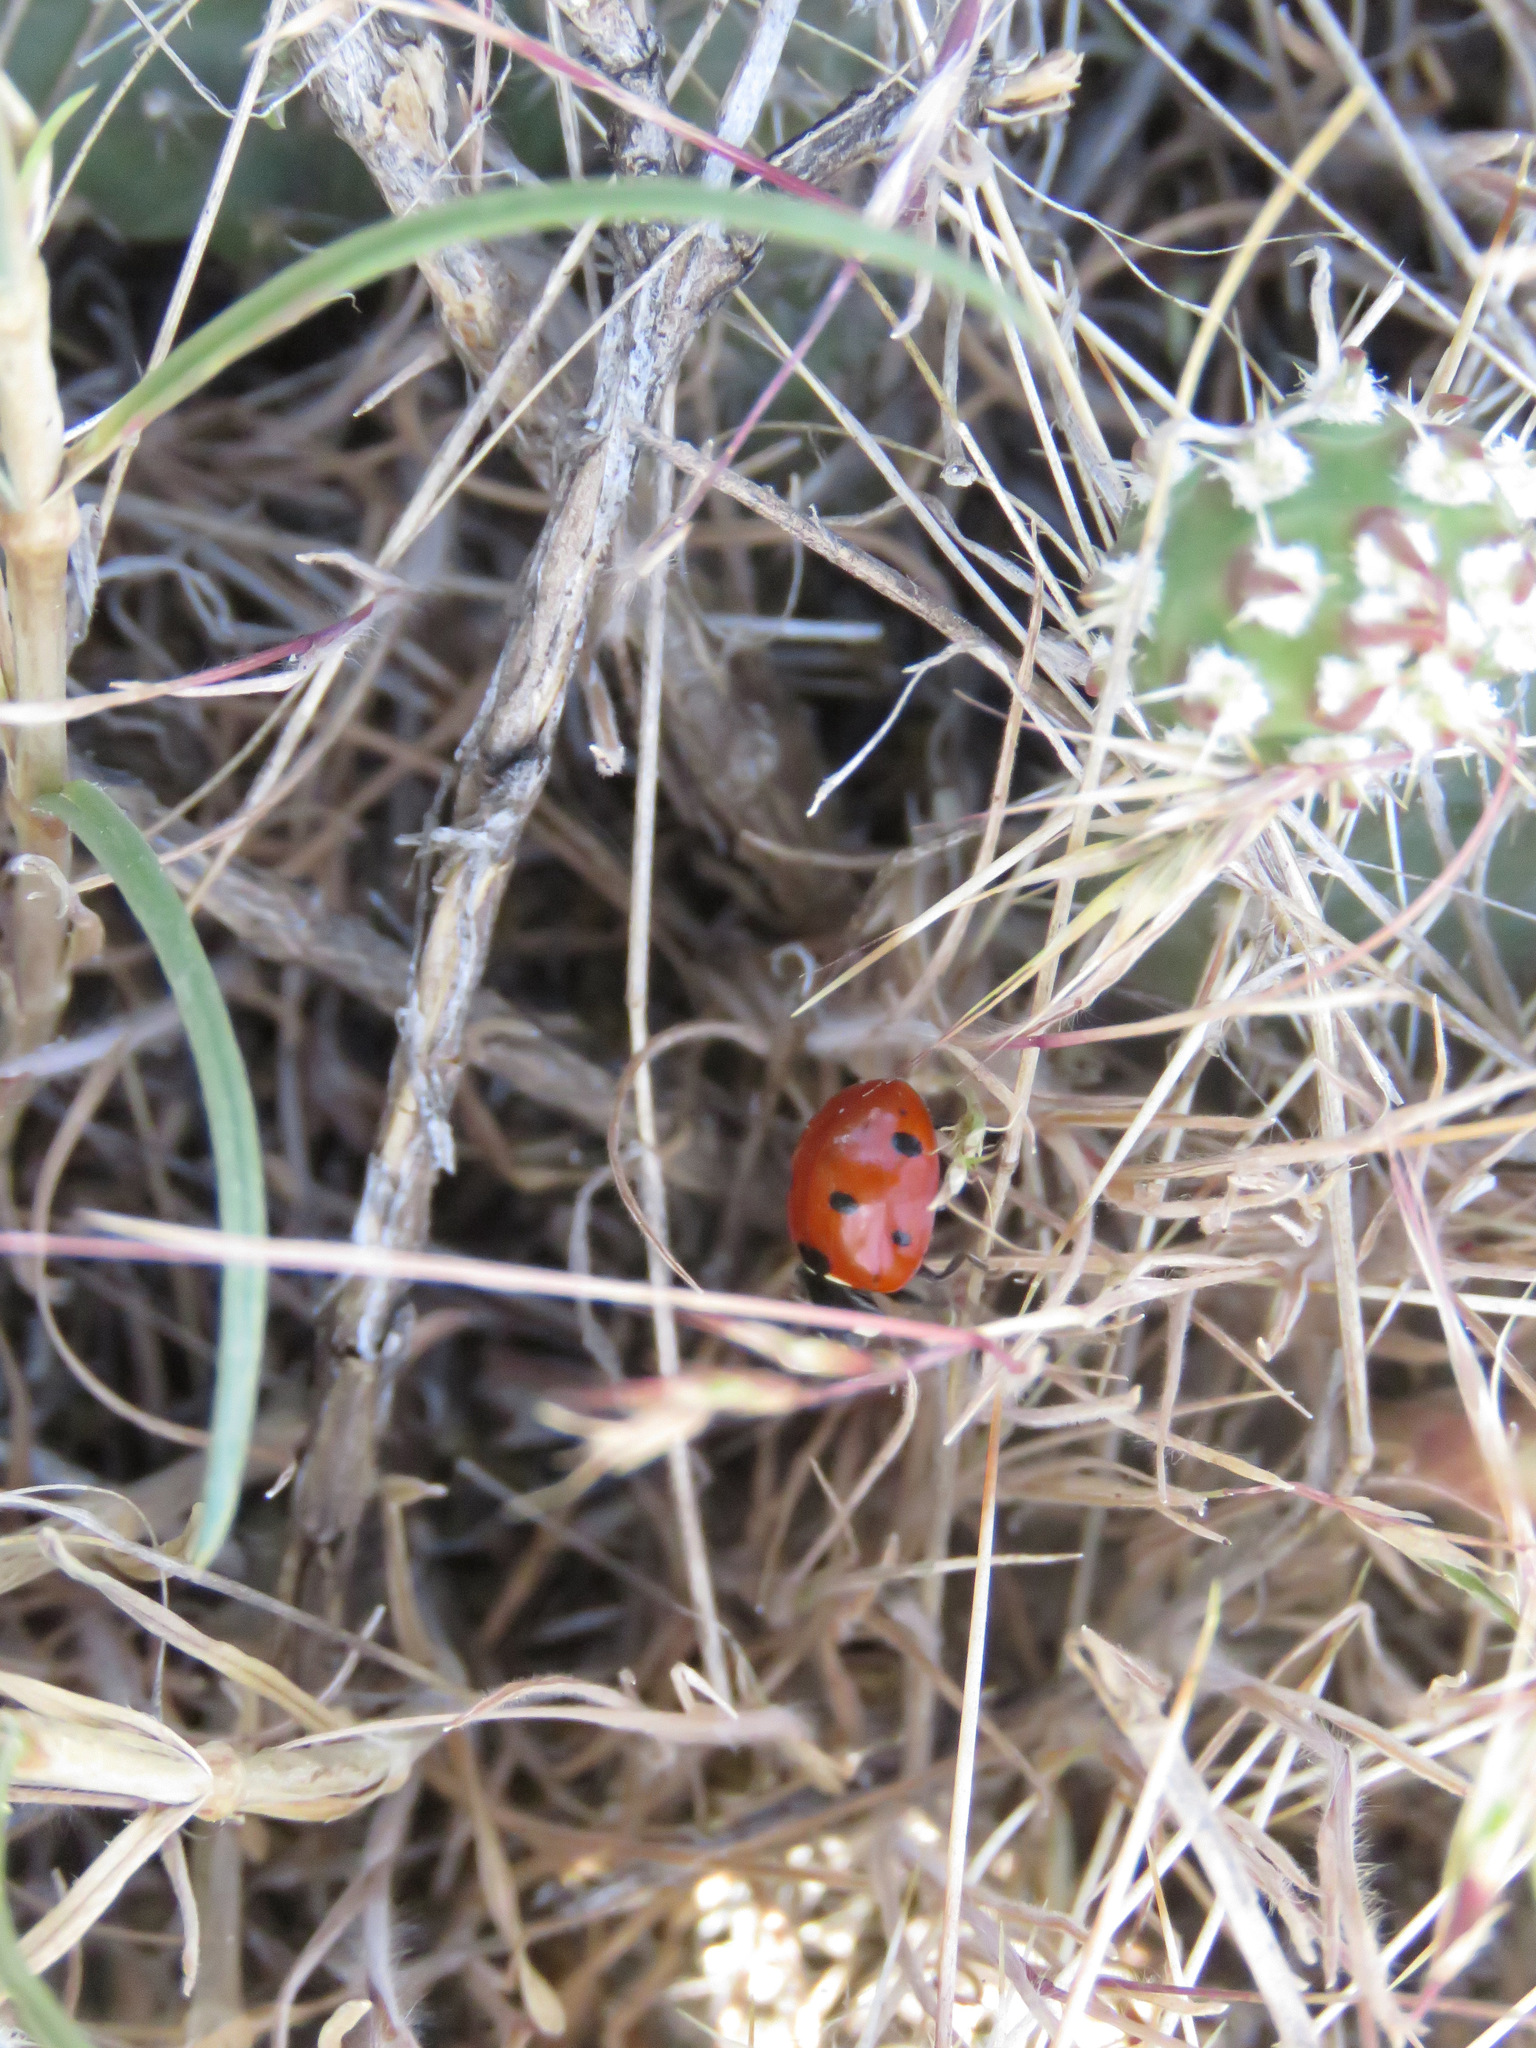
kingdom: Animalia
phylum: Arthropoda
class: Insecta
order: Coleoptera
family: Coccinellidae
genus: Coccinella
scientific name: Coccinella septempunctata
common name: Sevenspotted lady beetle
